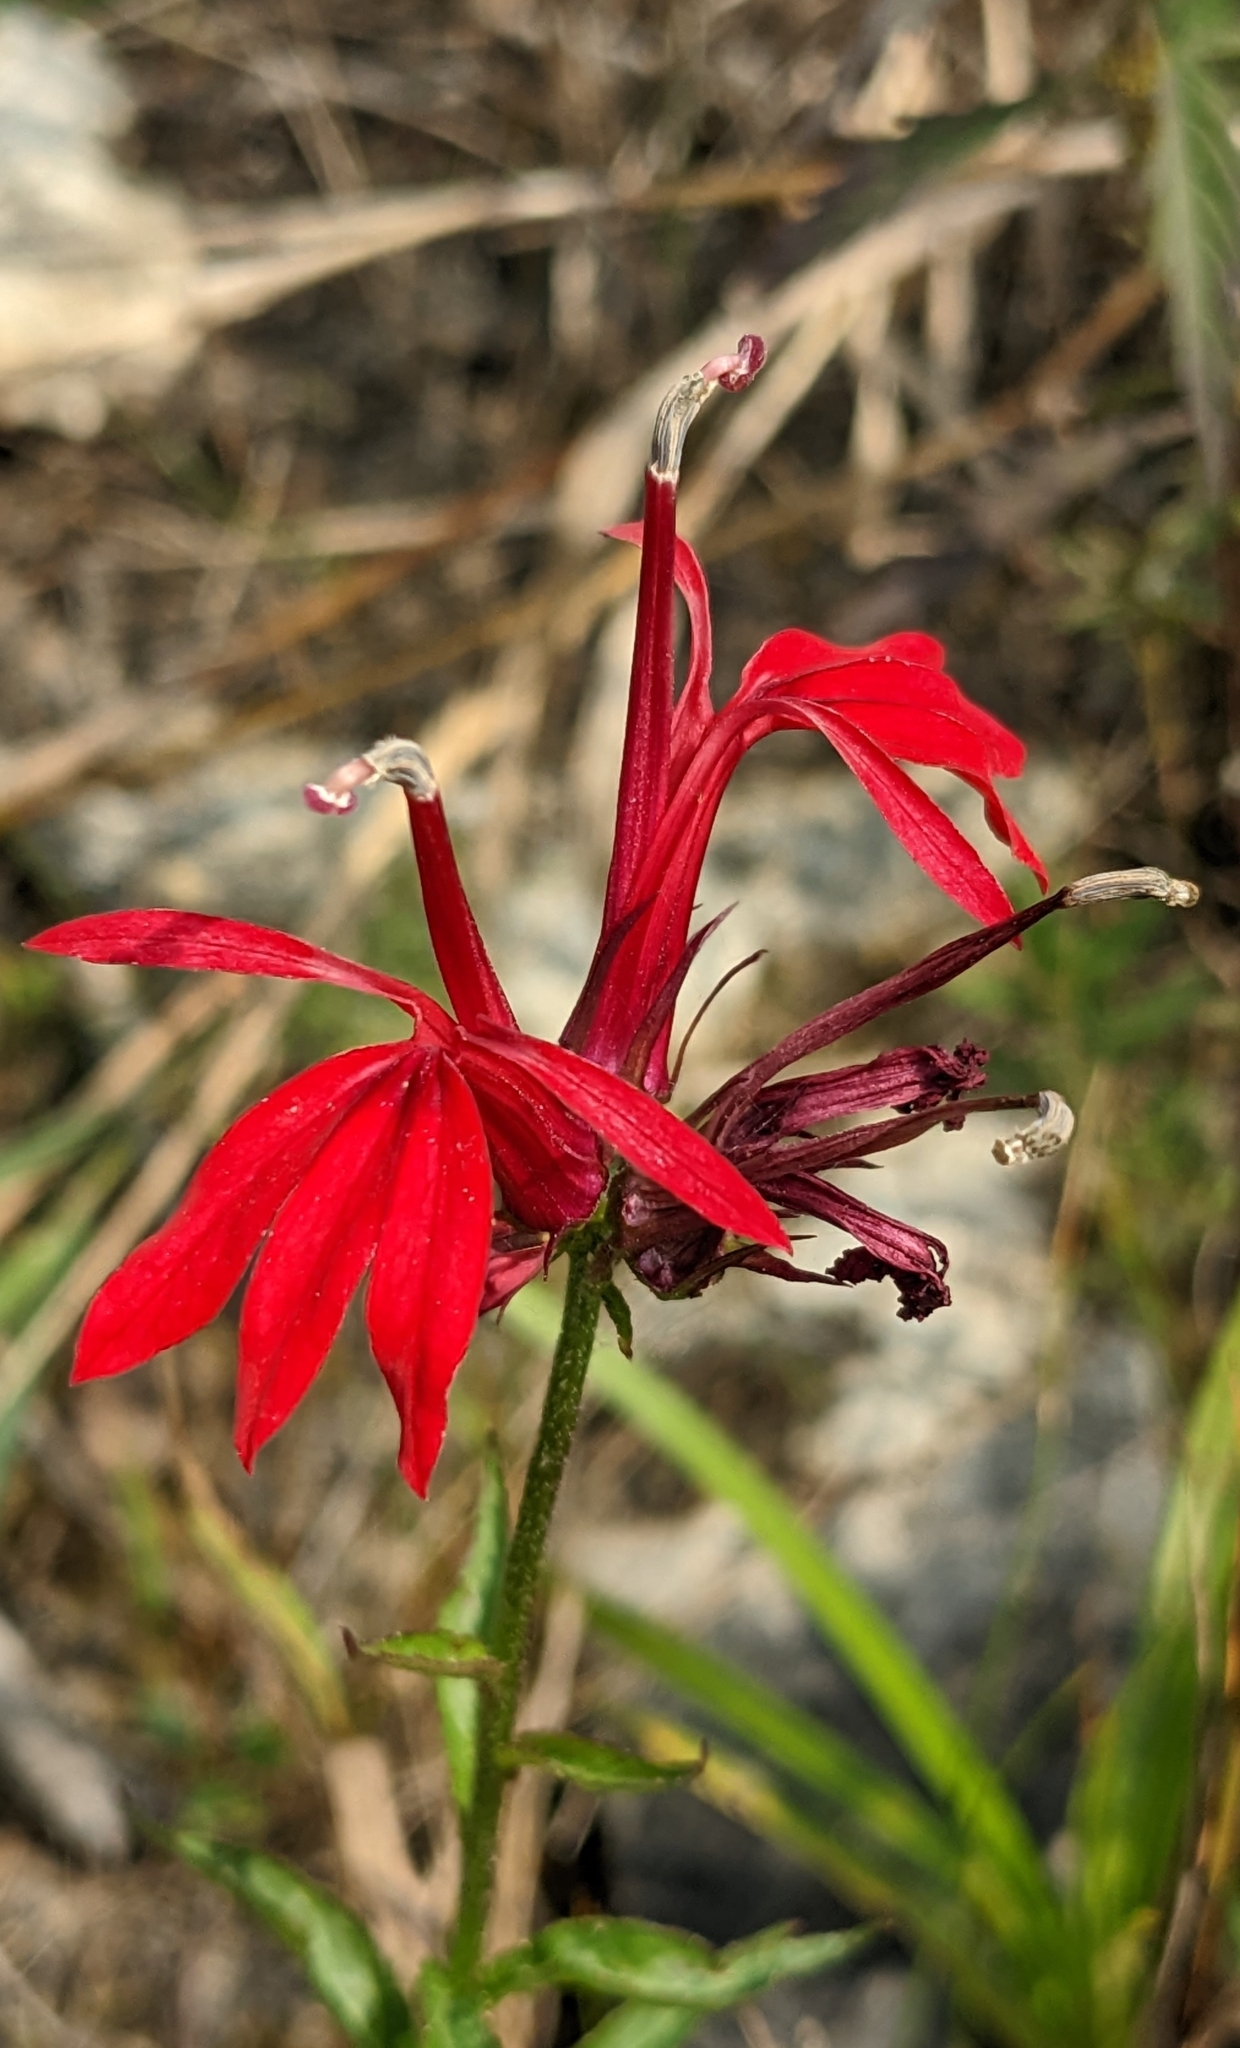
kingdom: Plantae
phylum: Tracheophyta
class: Magnoliopsida
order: Asterales
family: Campanulaceae
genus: Lobelia
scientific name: Lobelia cardinalis
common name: Cardinal flower
